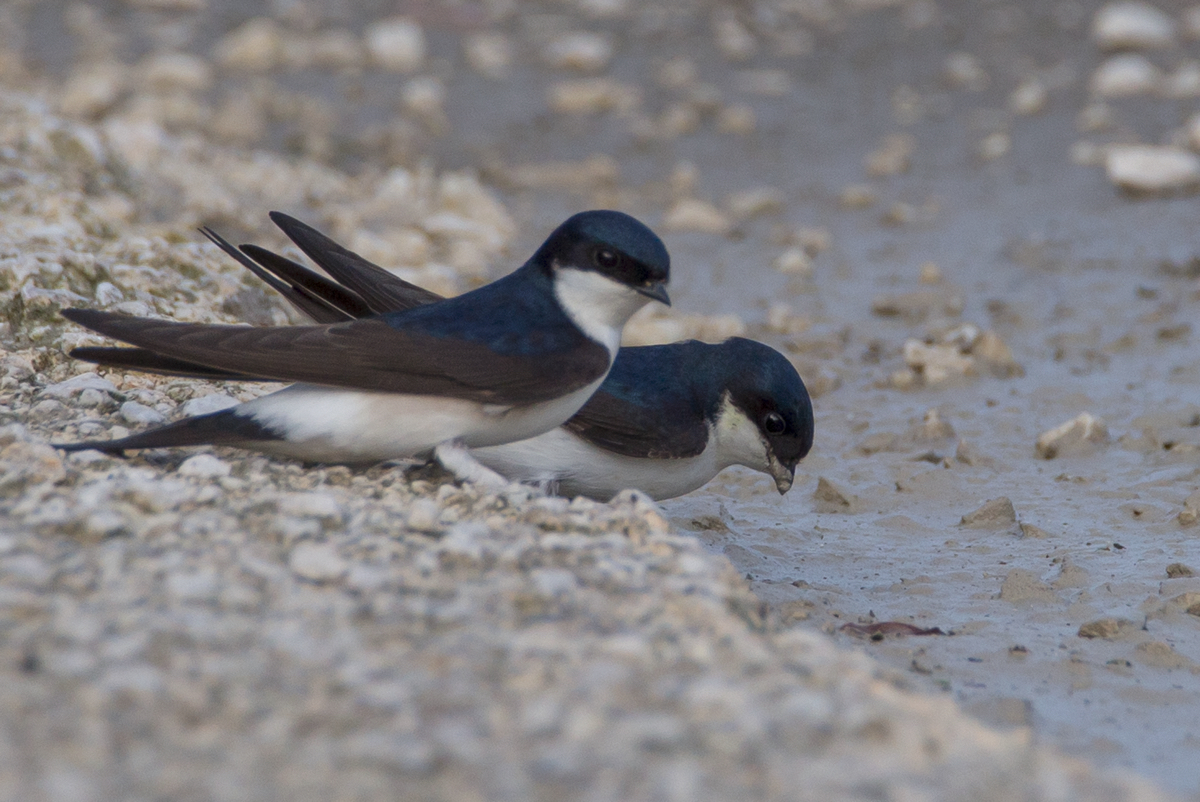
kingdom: Animalia
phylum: Chordata
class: Aves
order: Passeriformes
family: Hirundinidae
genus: Delichon
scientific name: Delichon urbicum
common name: Common house martin
